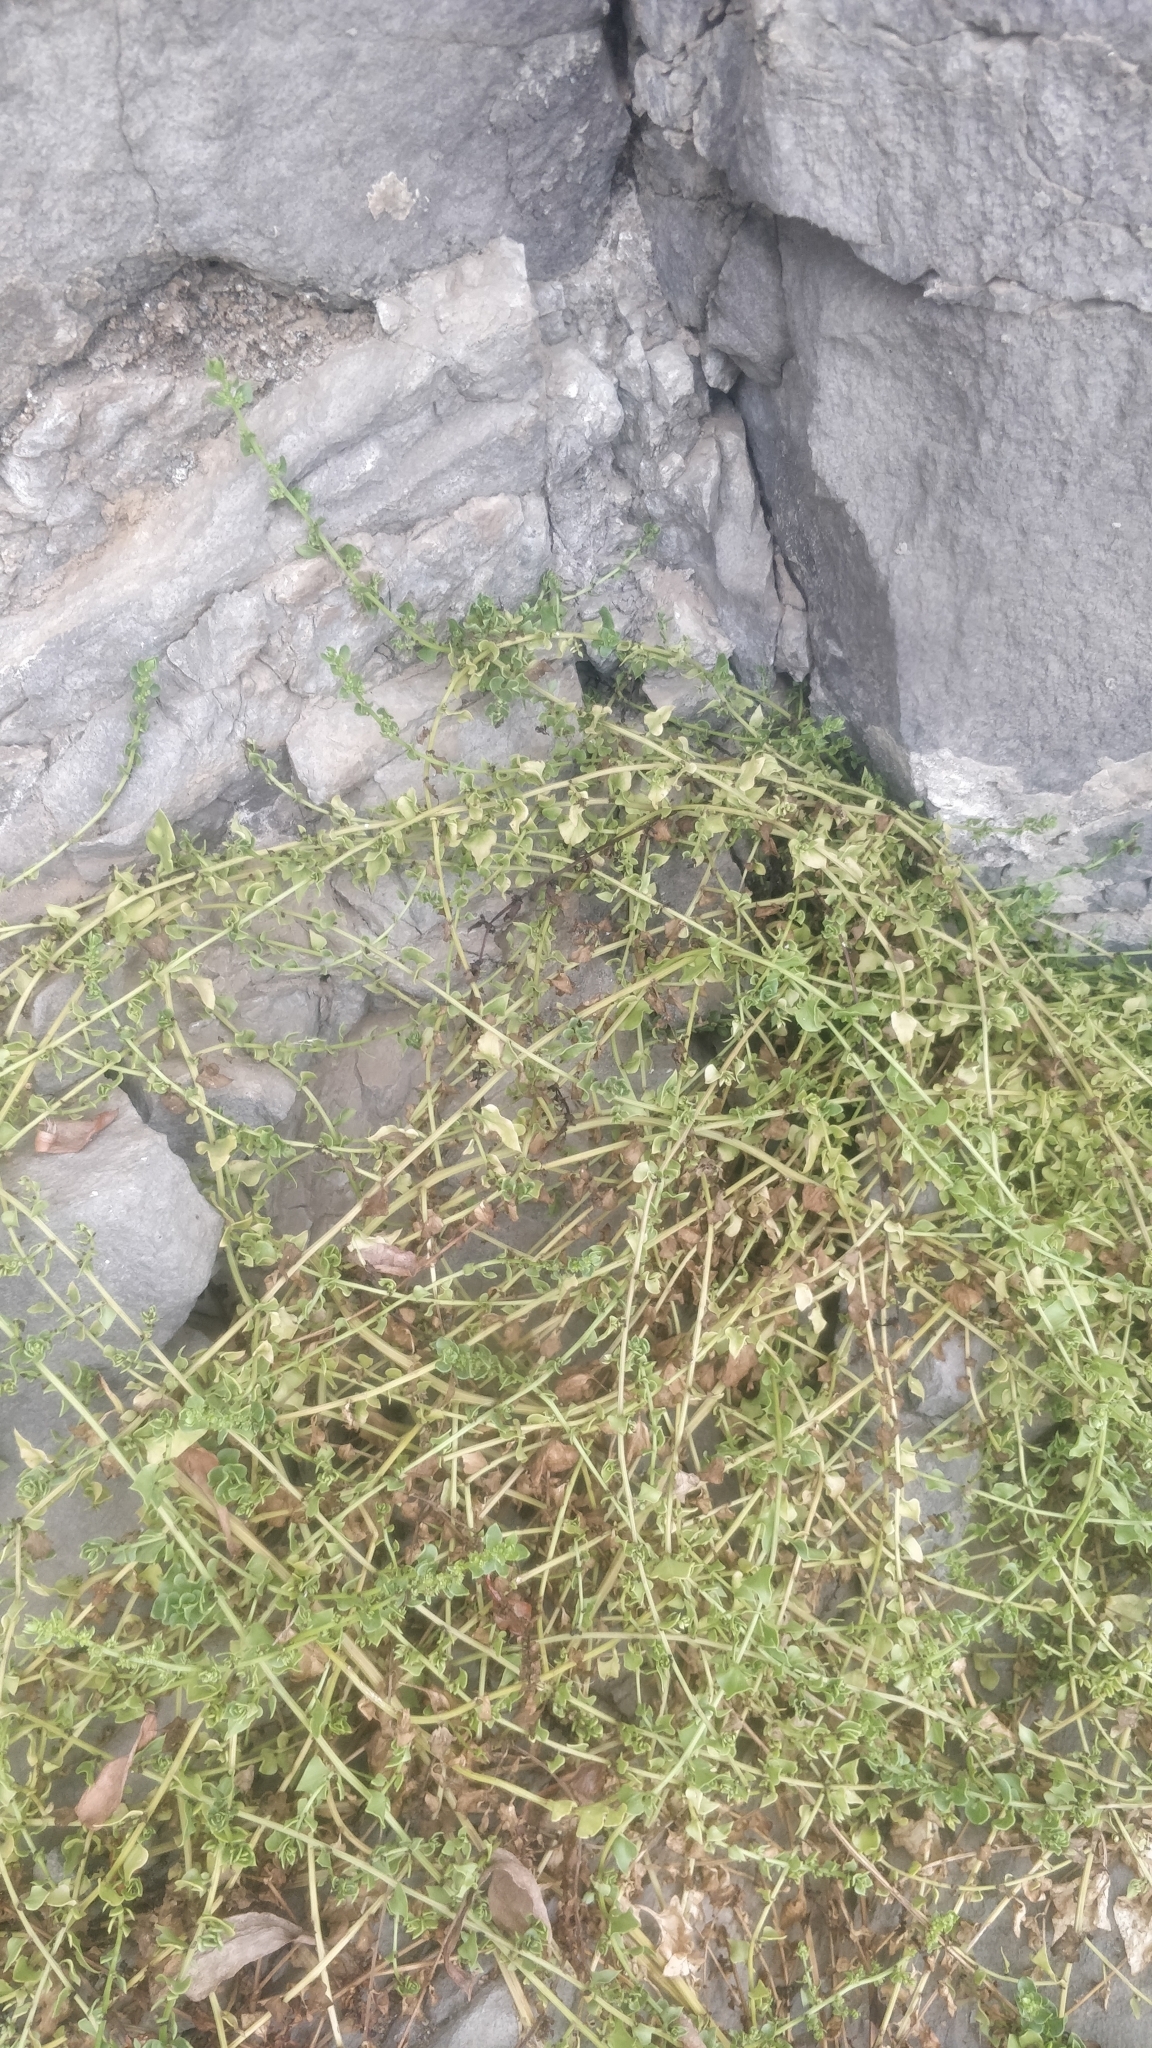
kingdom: Plantae
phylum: Tracheophyta
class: Magnoliopsida
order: Caryophyllales
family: Amaranthaceae
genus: Patellifolia
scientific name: Patellifolia procumbens
